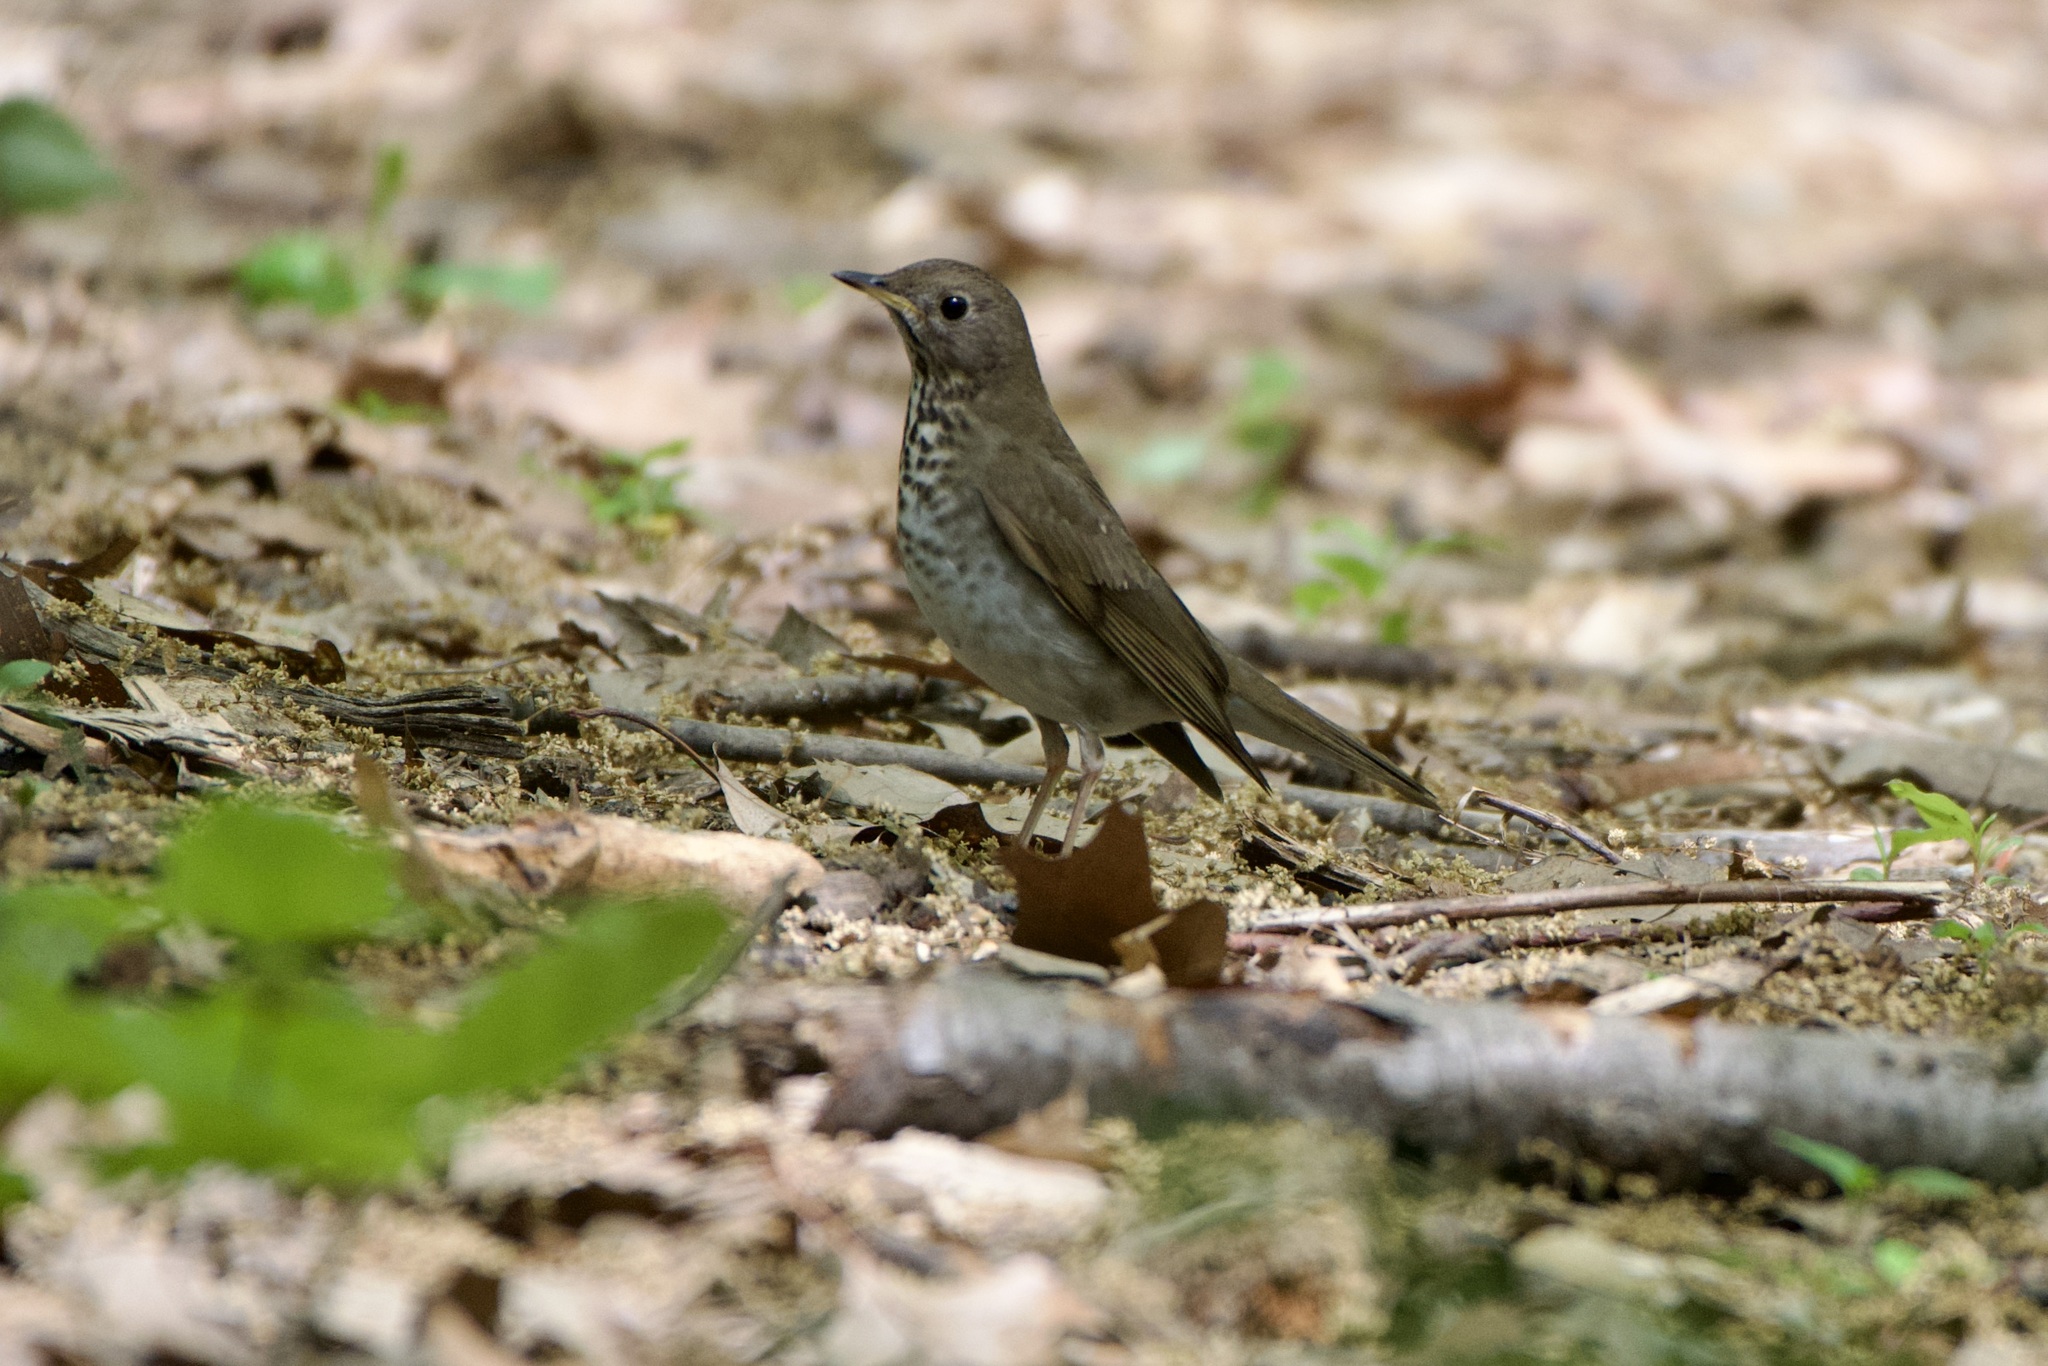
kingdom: Animalia
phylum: Chordata
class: Aves
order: Passeriformes
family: Turdidae
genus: Catharus
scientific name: Catharus bicknelli
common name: Bicknell's thrush
